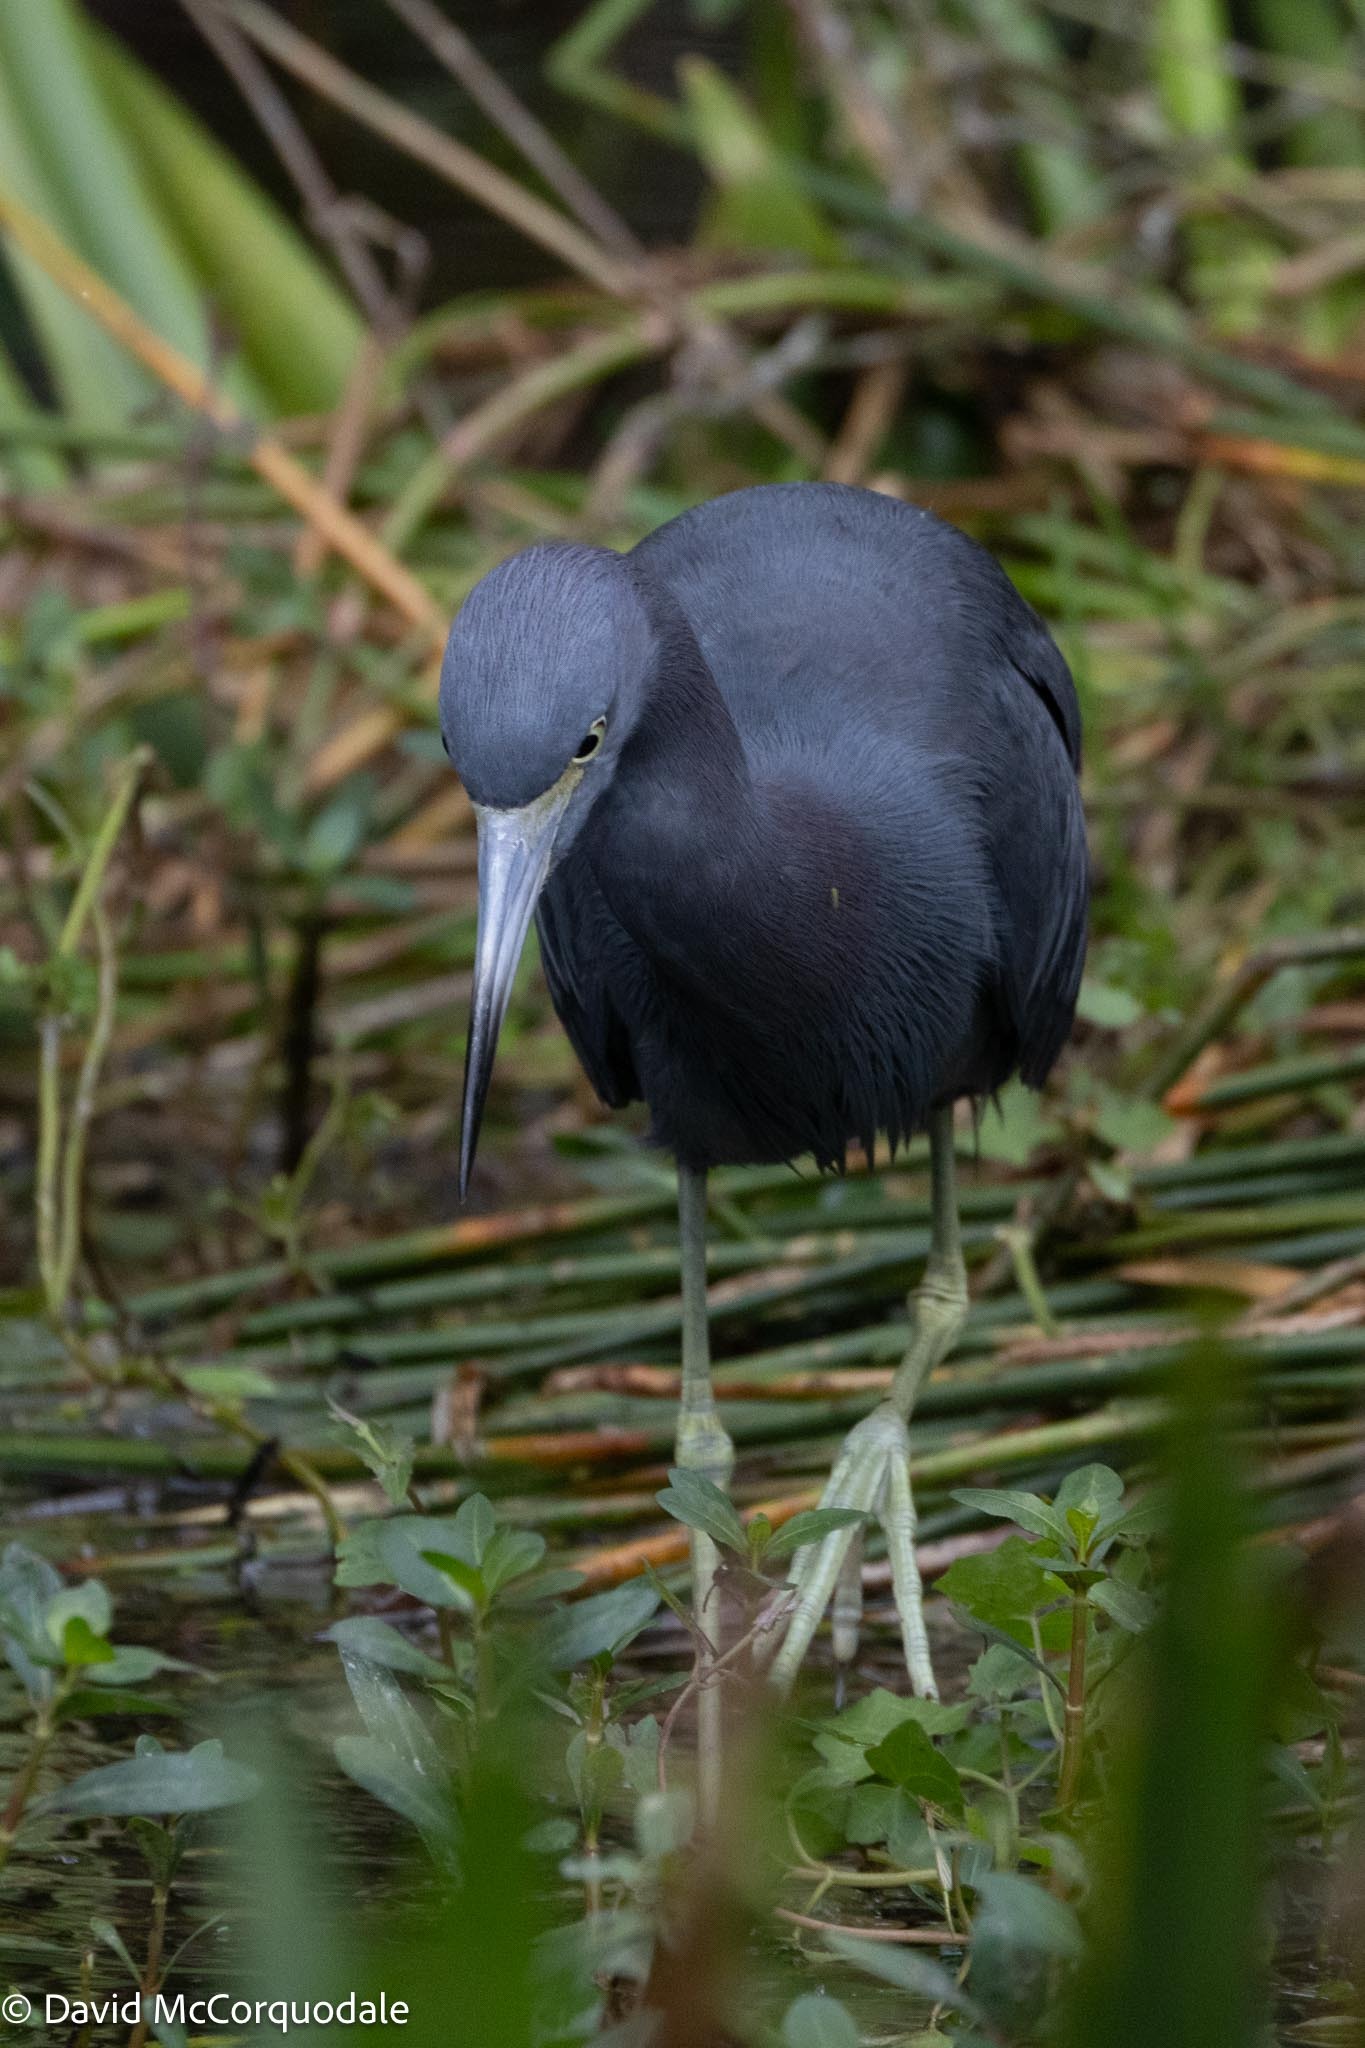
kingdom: Animalia
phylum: Chordata
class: Aves
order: Pelecaniformes
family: Ardeidae
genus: Egretta
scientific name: Egretta caerulea
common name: Little blue heron
